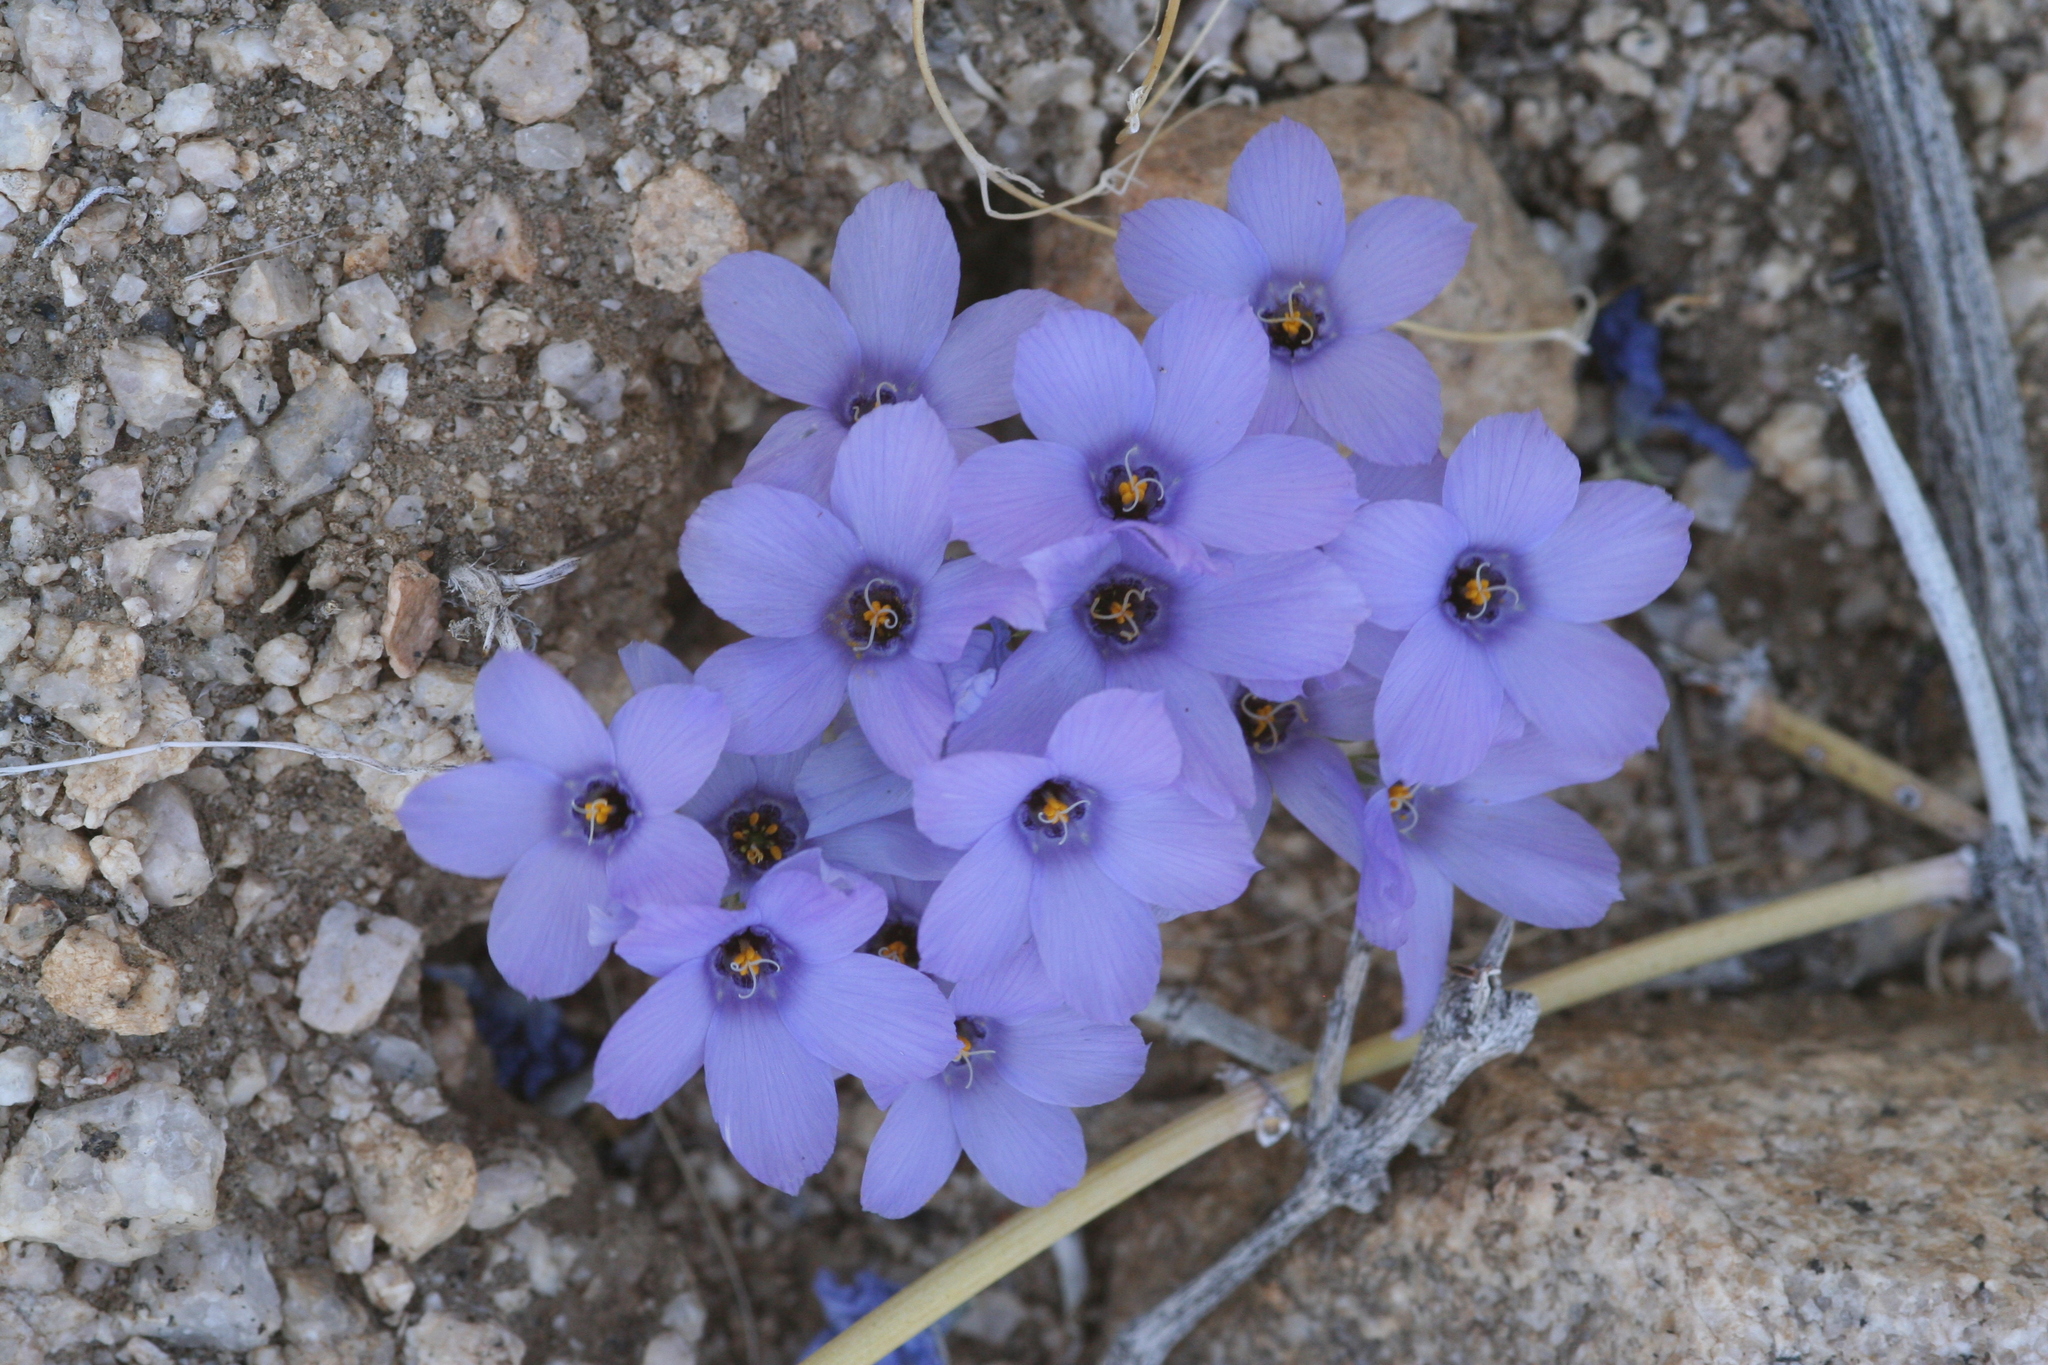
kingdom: Plantae
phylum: Tracheophyta
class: Magnoliopsida
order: Ericales
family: Polemoniaceae
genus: Linanthus
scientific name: Linanthus parryae
